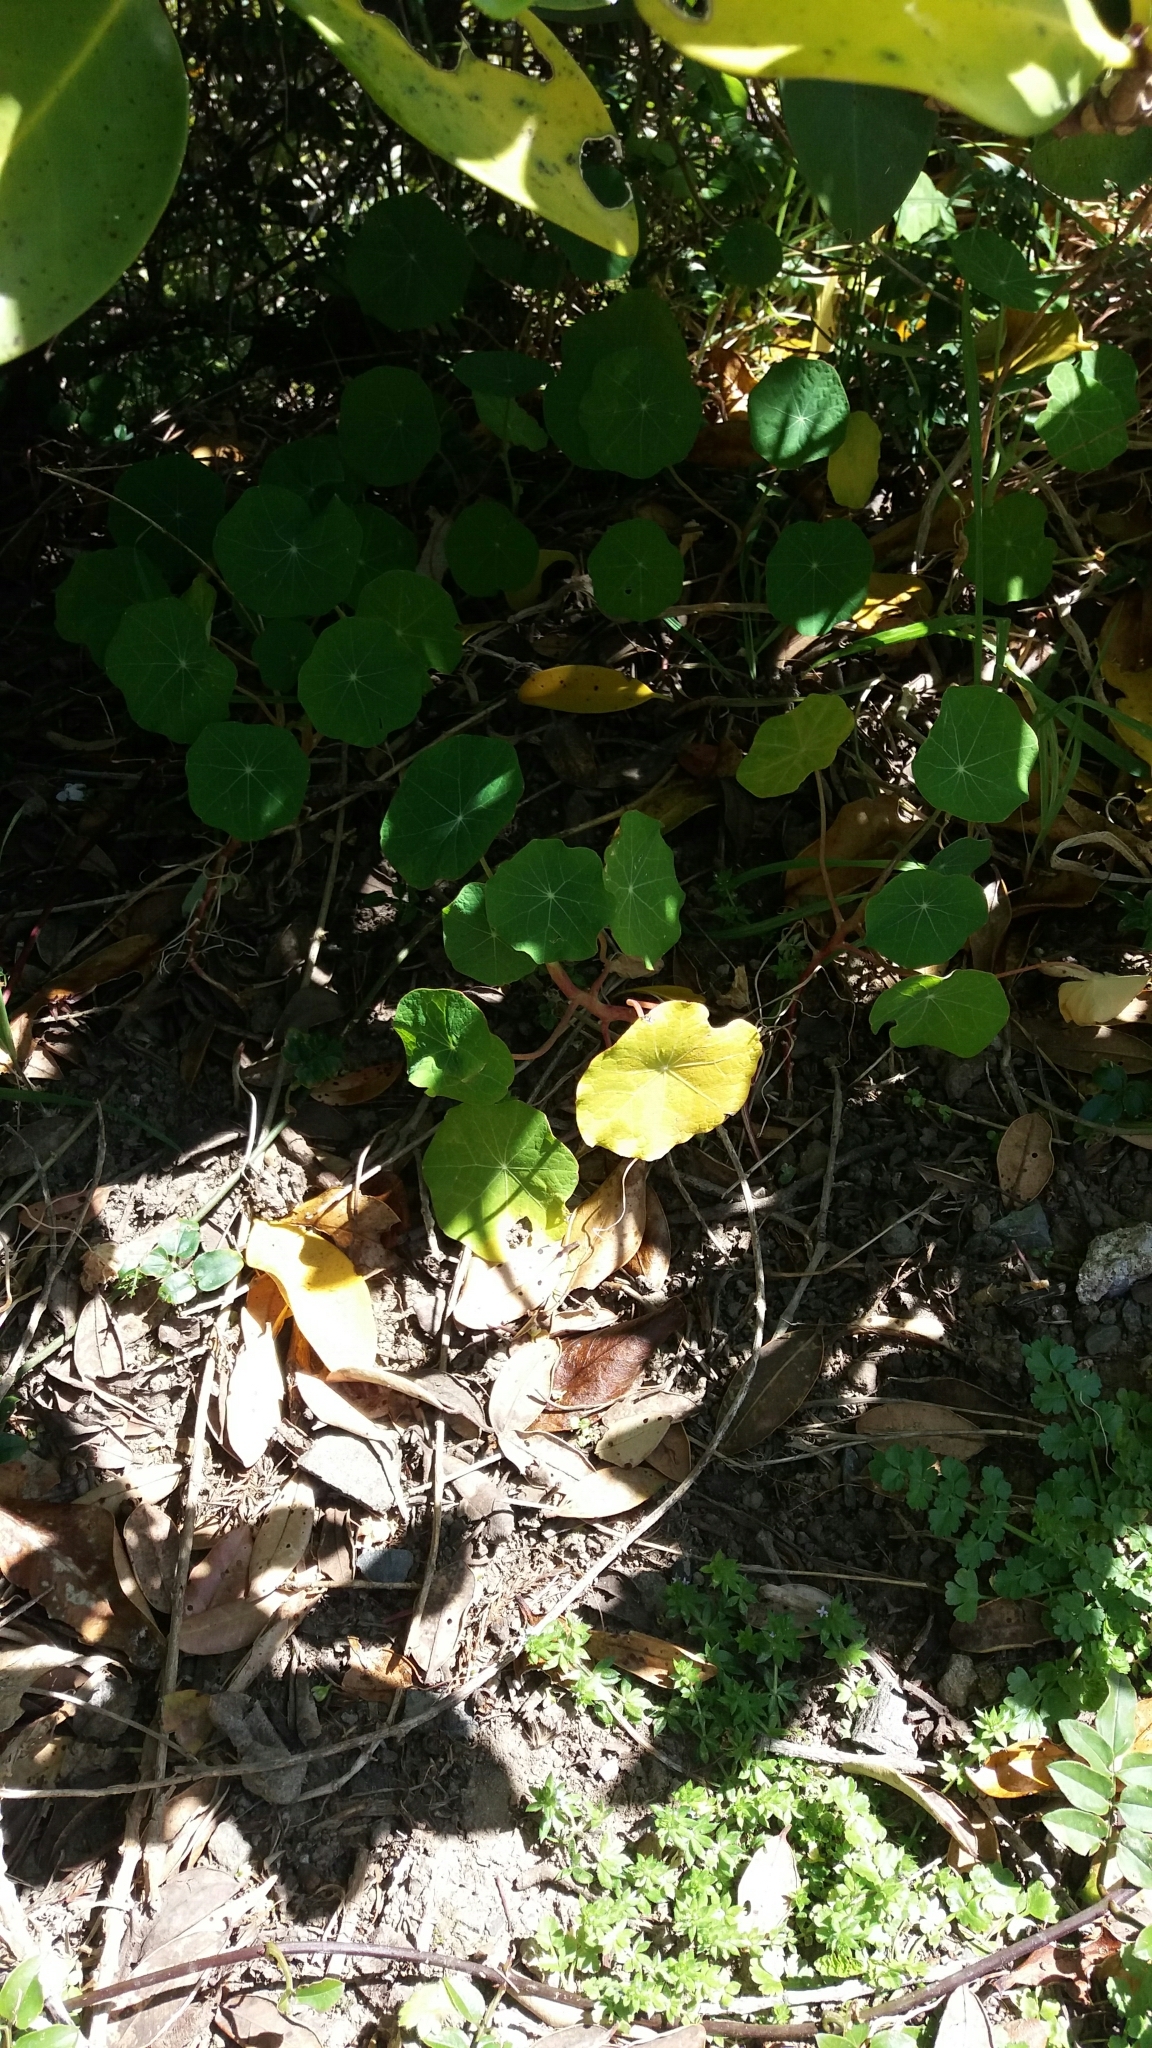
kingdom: Plantae
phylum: Tracheophyta
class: Magnoliopsida
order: Brassicales
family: Tropaeolaceae
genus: Tropaeolum
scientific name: Tropaeolum majus
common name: Nasturtium
